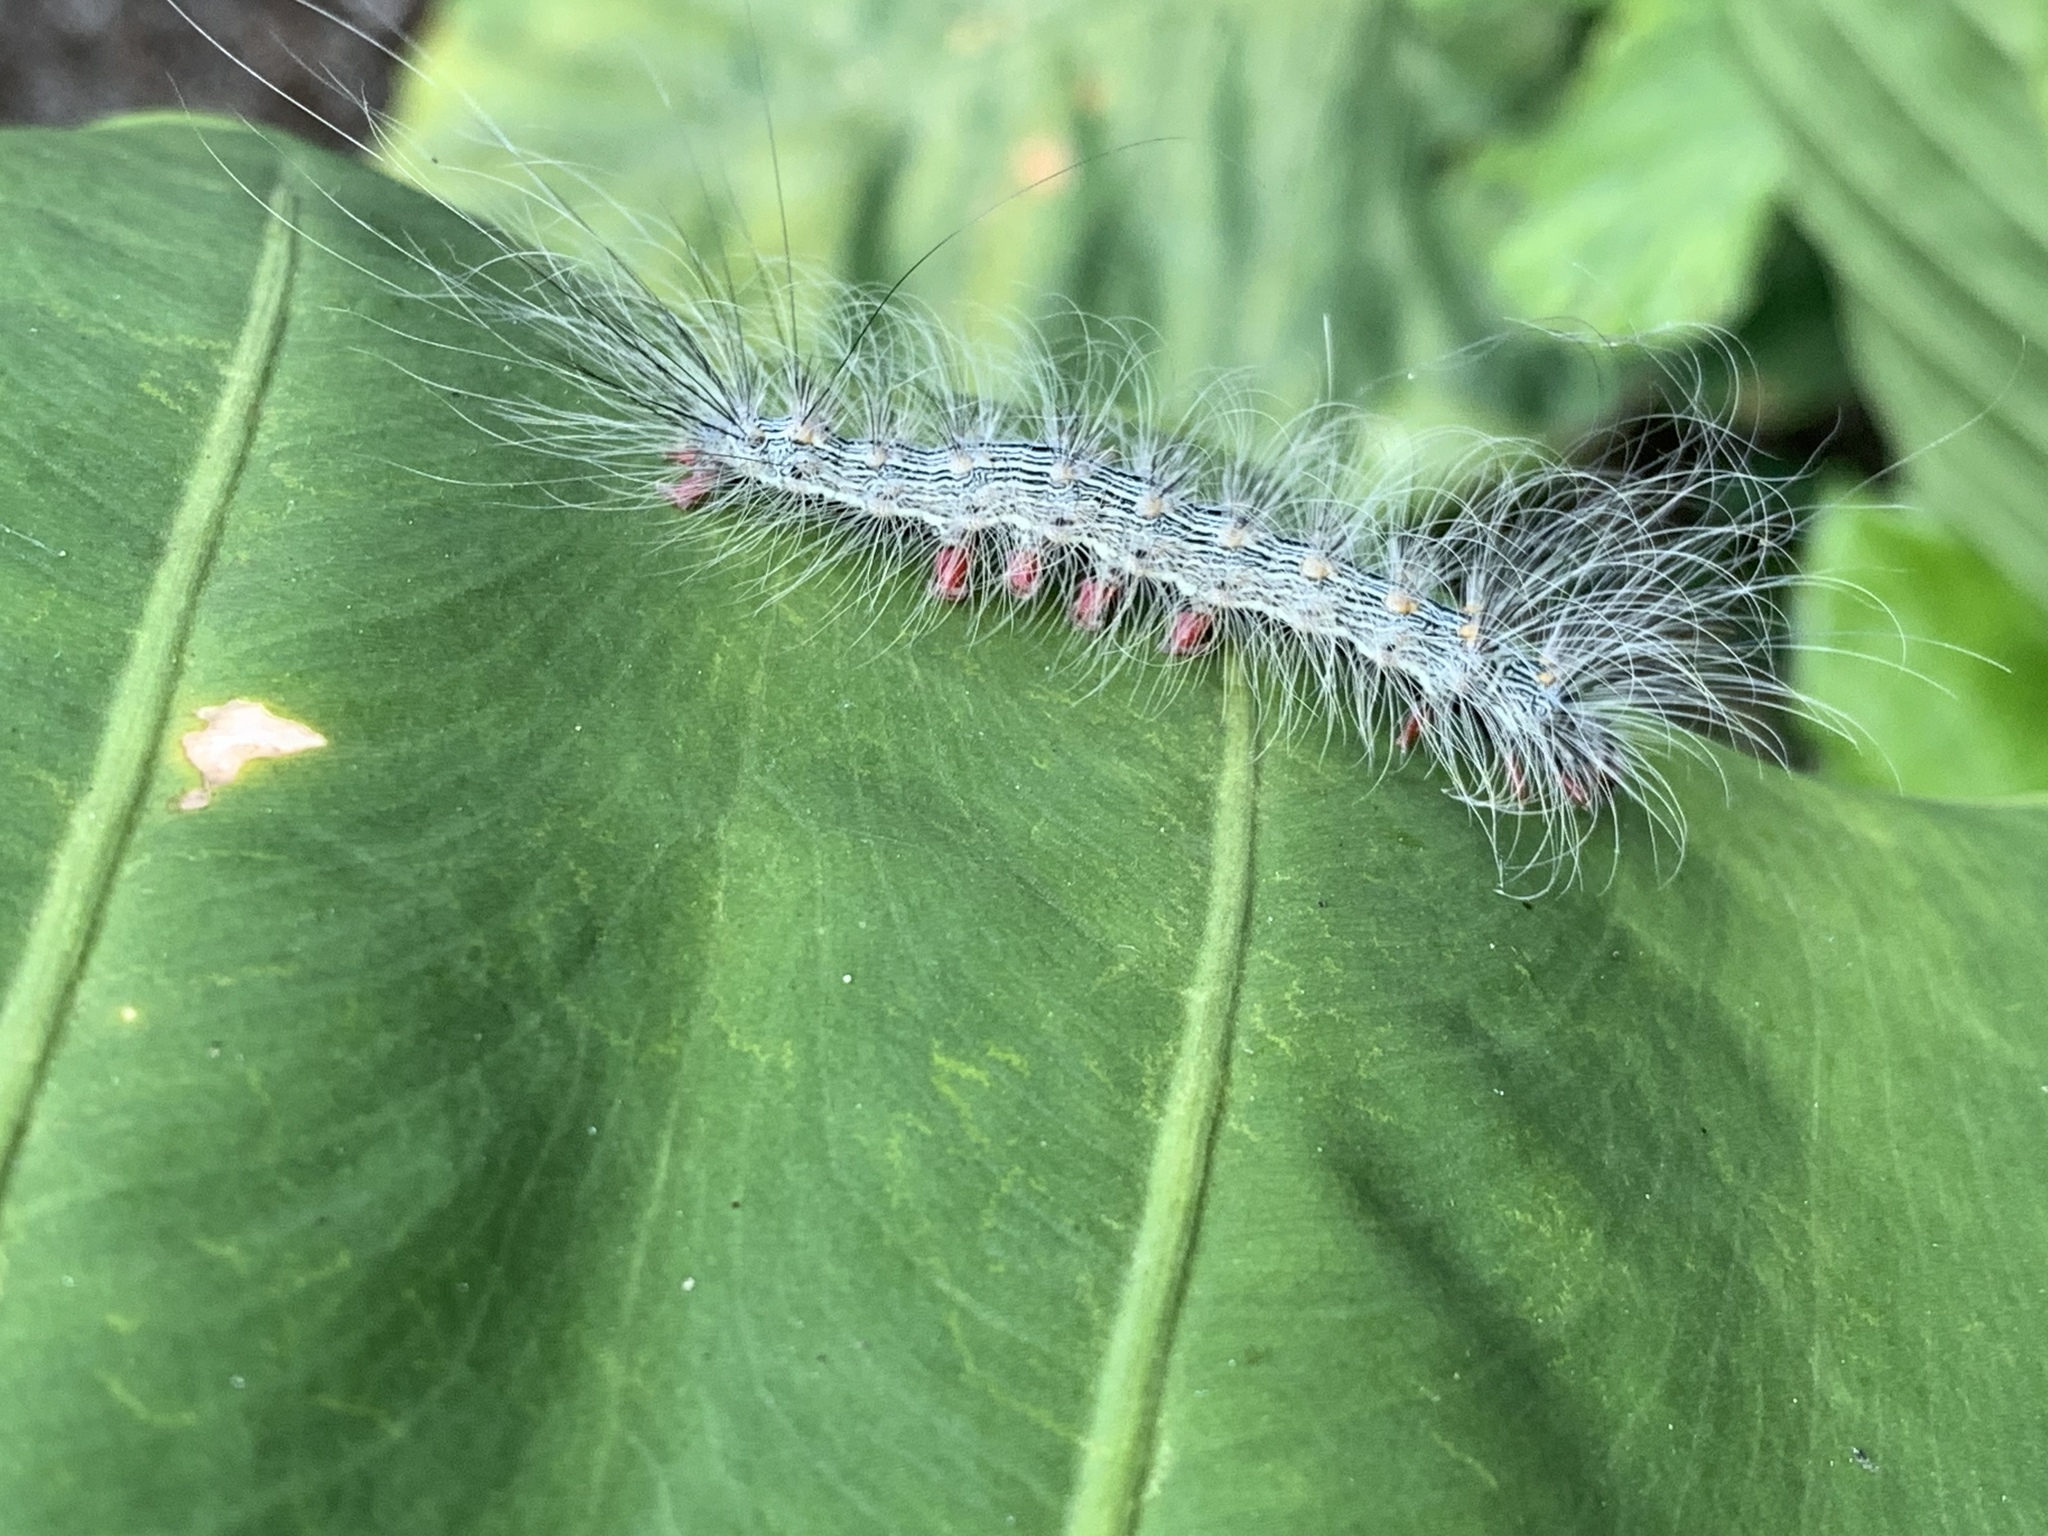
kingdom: Animalia
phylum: Arthropoda
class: Insecta
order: Lepidoptera
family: Erebidae
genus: Chrysaeglia
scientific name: Chrysaeglia magnifica
